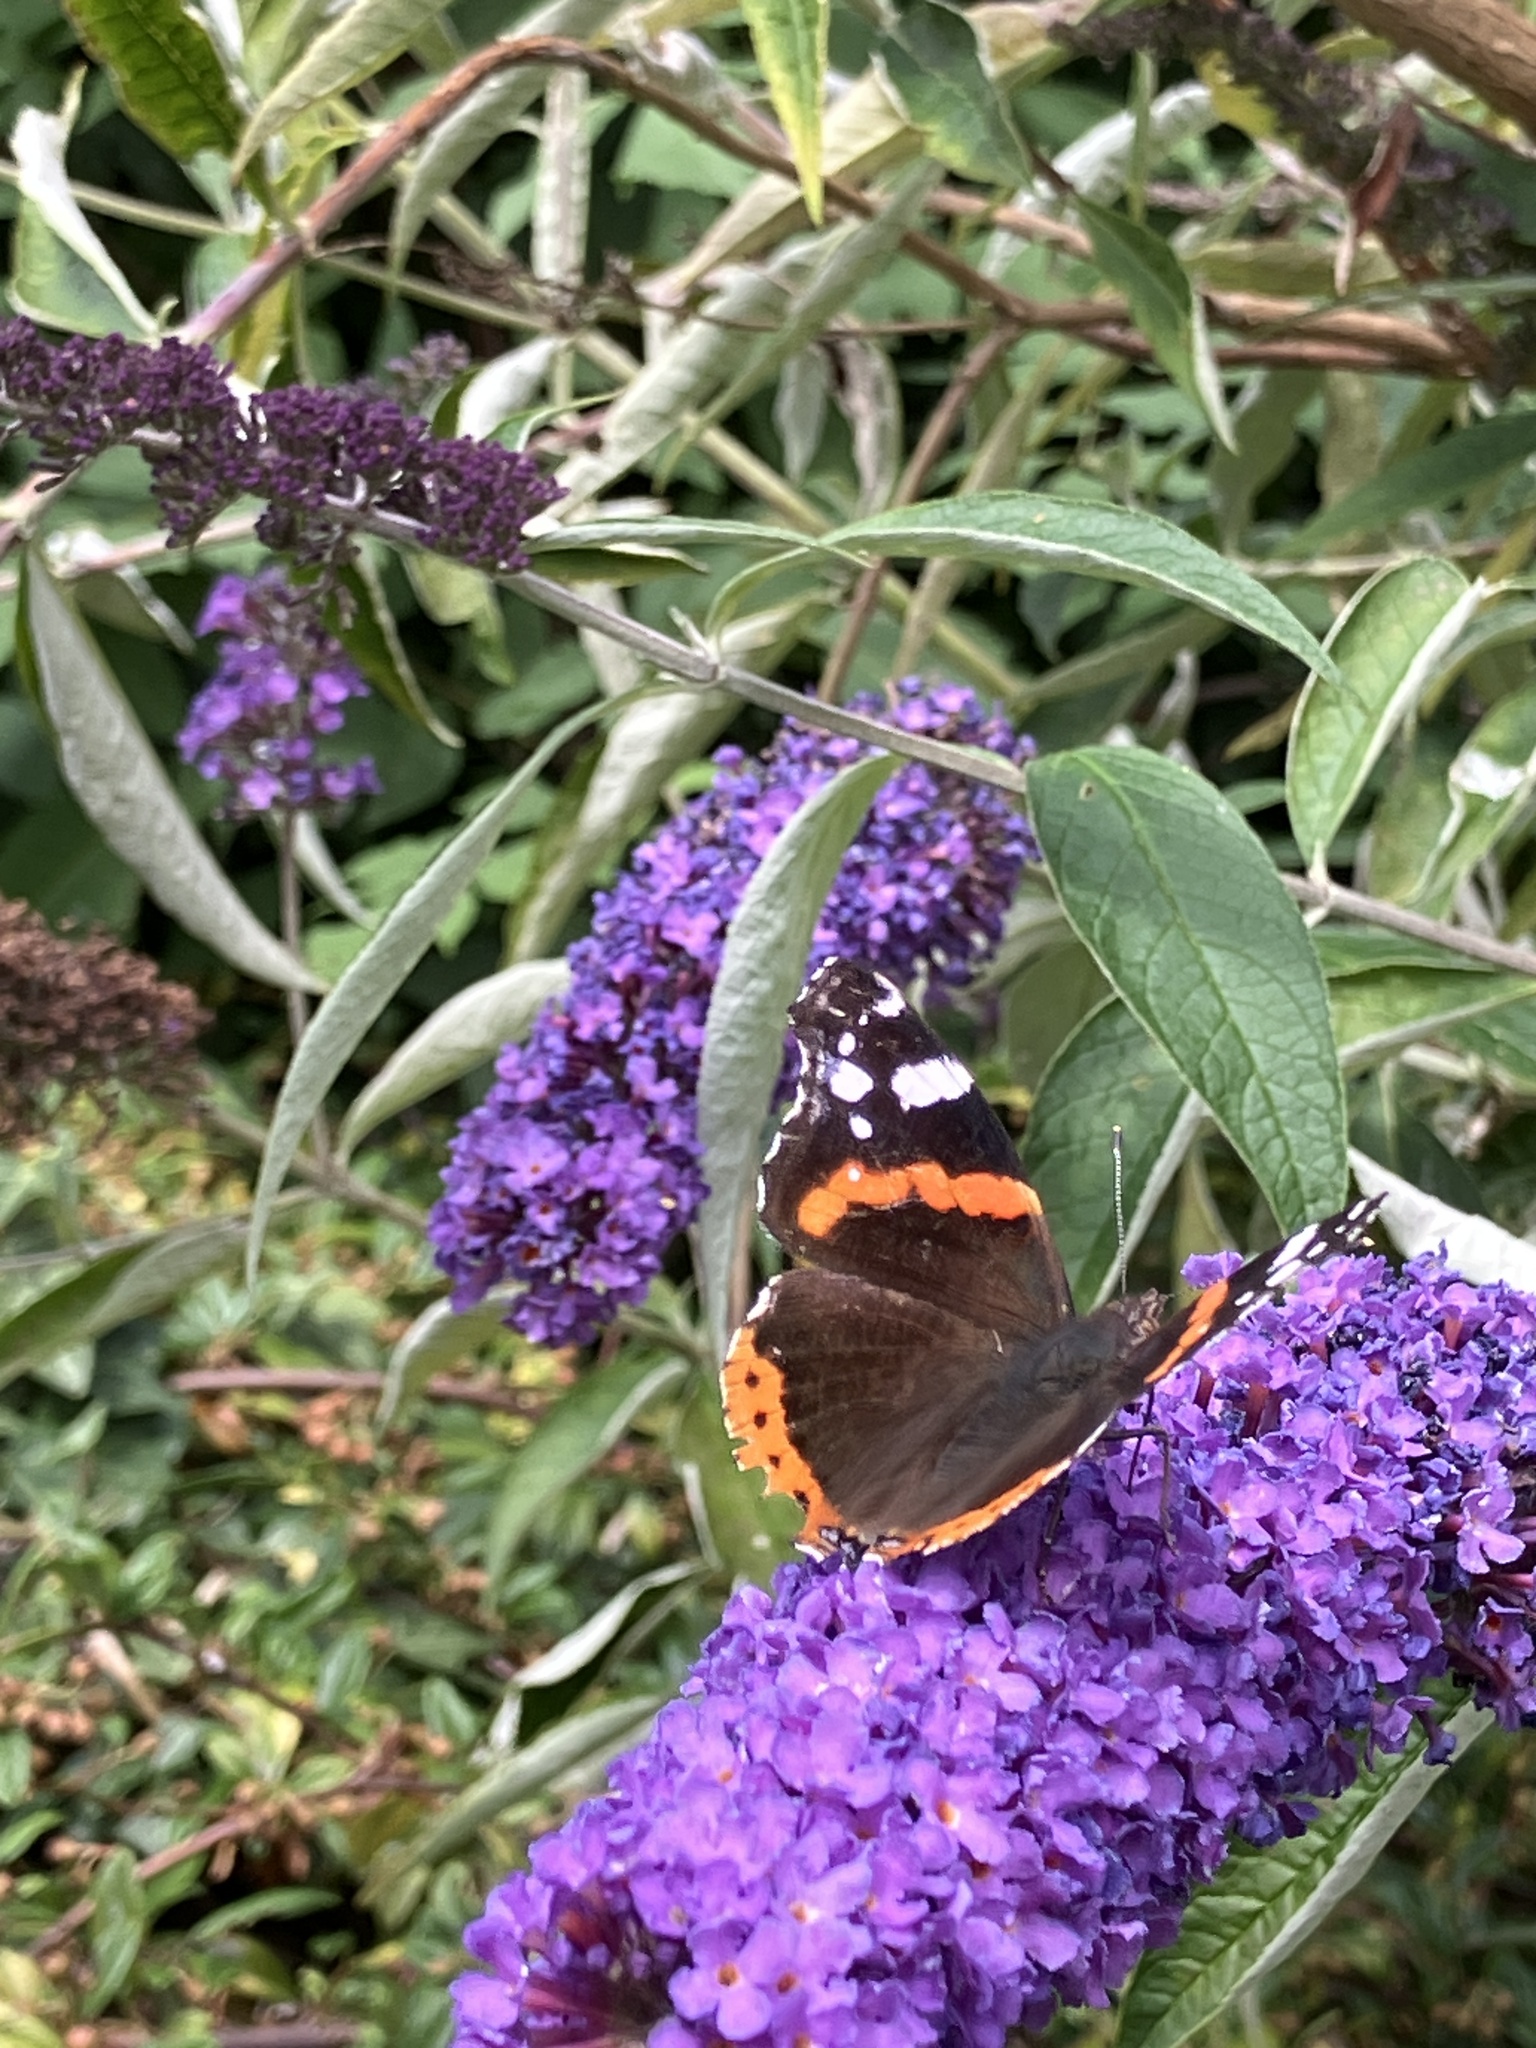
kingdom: Animalia
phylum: Arthropoda
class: Insecta
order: Lepidoptera
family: Nymphalidae
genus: Vanessa
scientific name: Vanessa atalanta
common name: Red admiral
